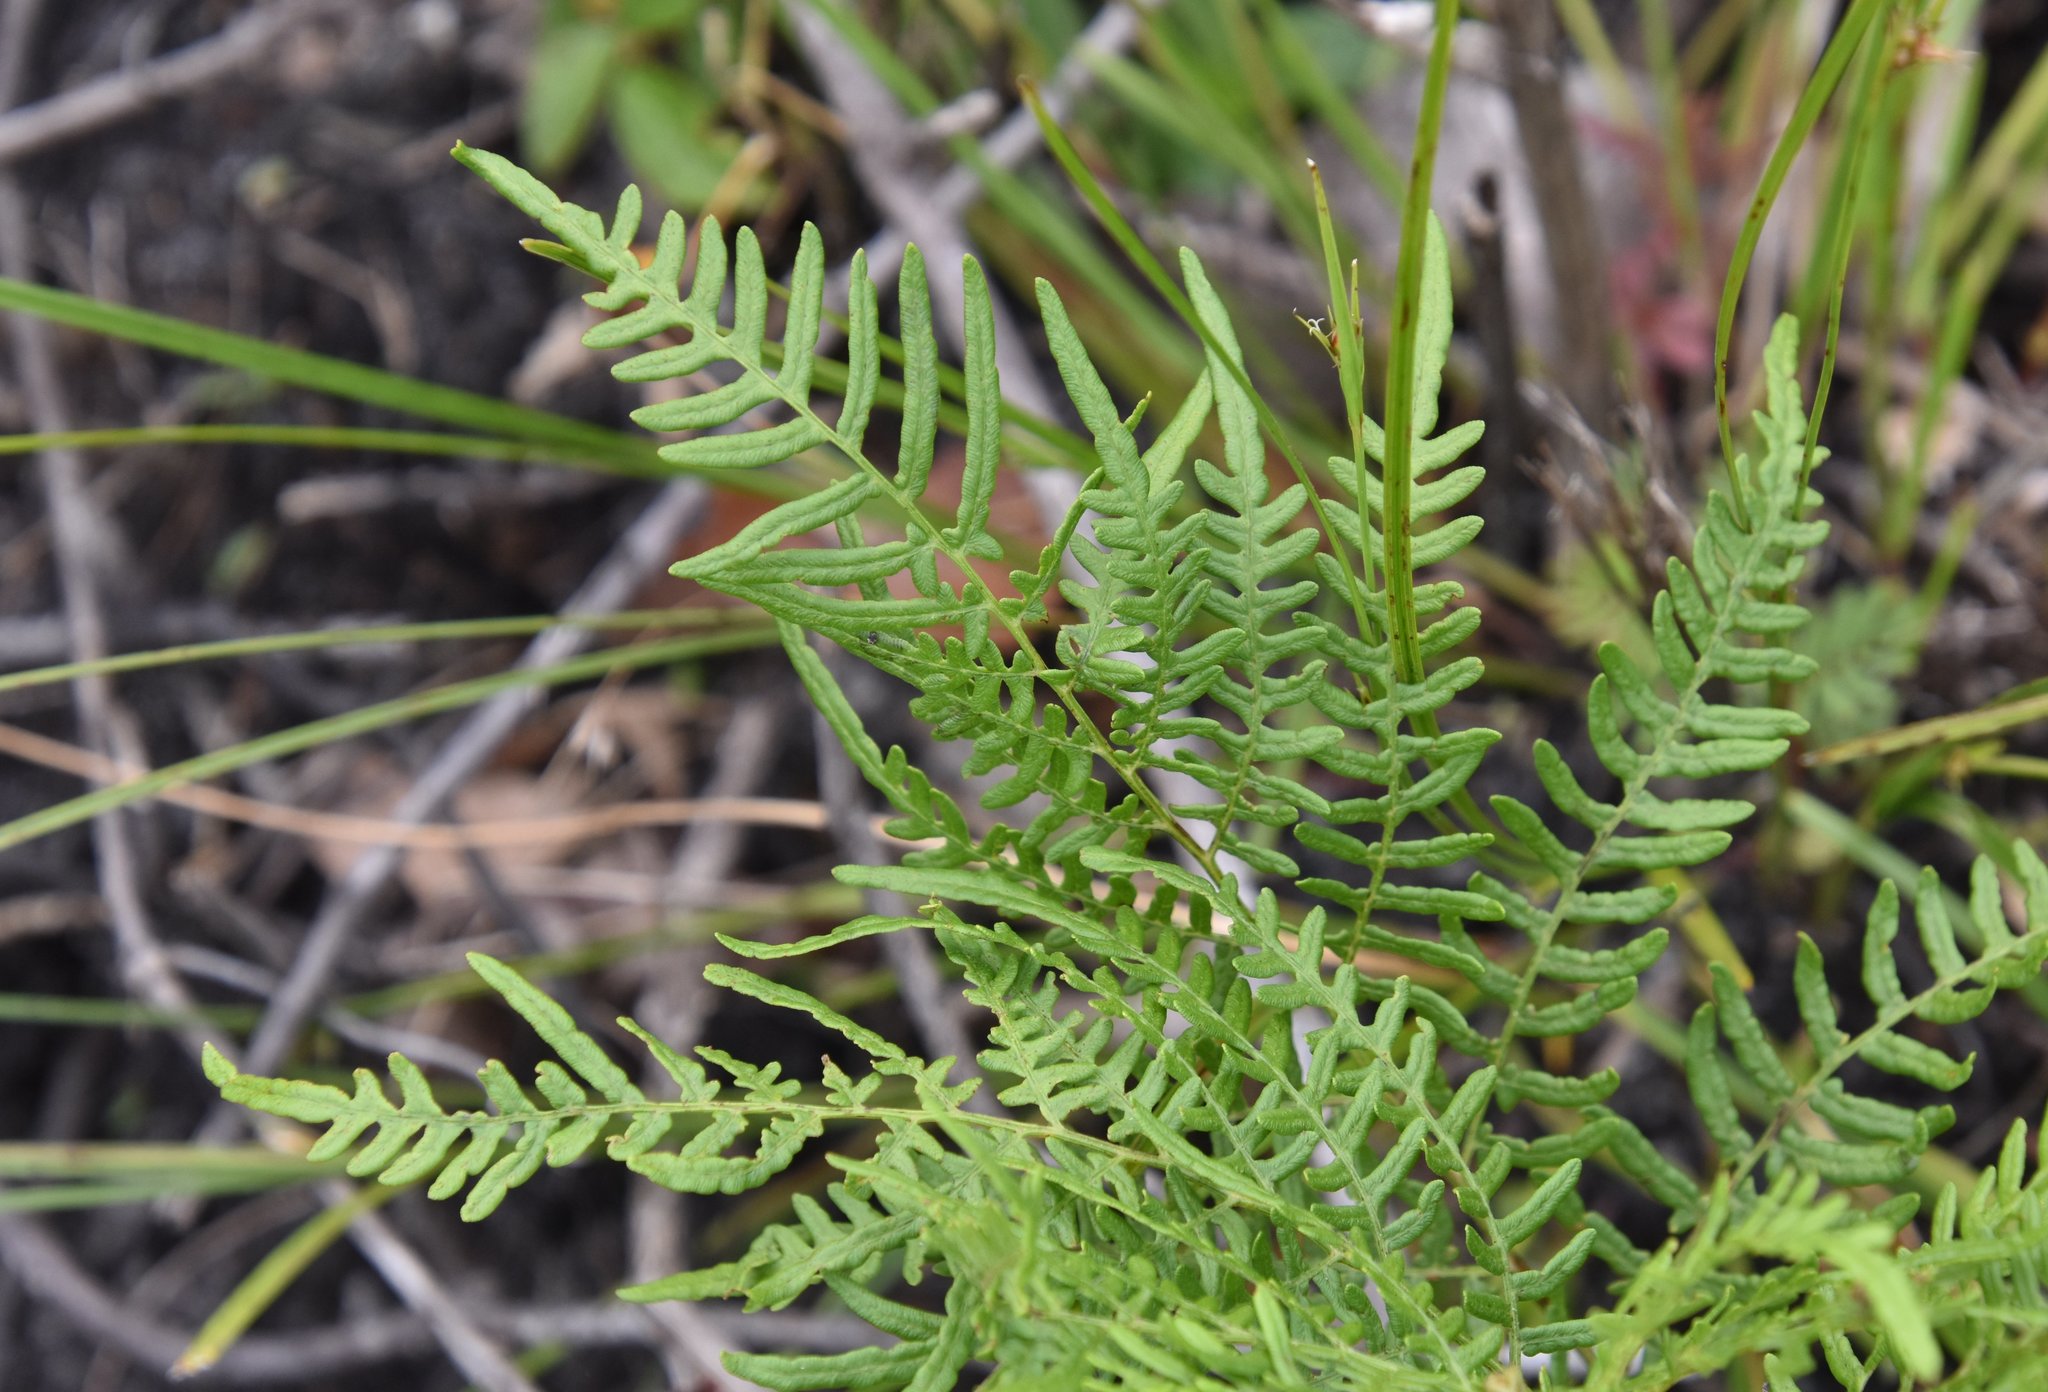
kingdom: Plantae
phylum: Tracheophyta
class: Polypodiopsida
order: Polypodiales
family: Dennstaedtiaceae
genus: Pteridium
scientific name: Pteridium
